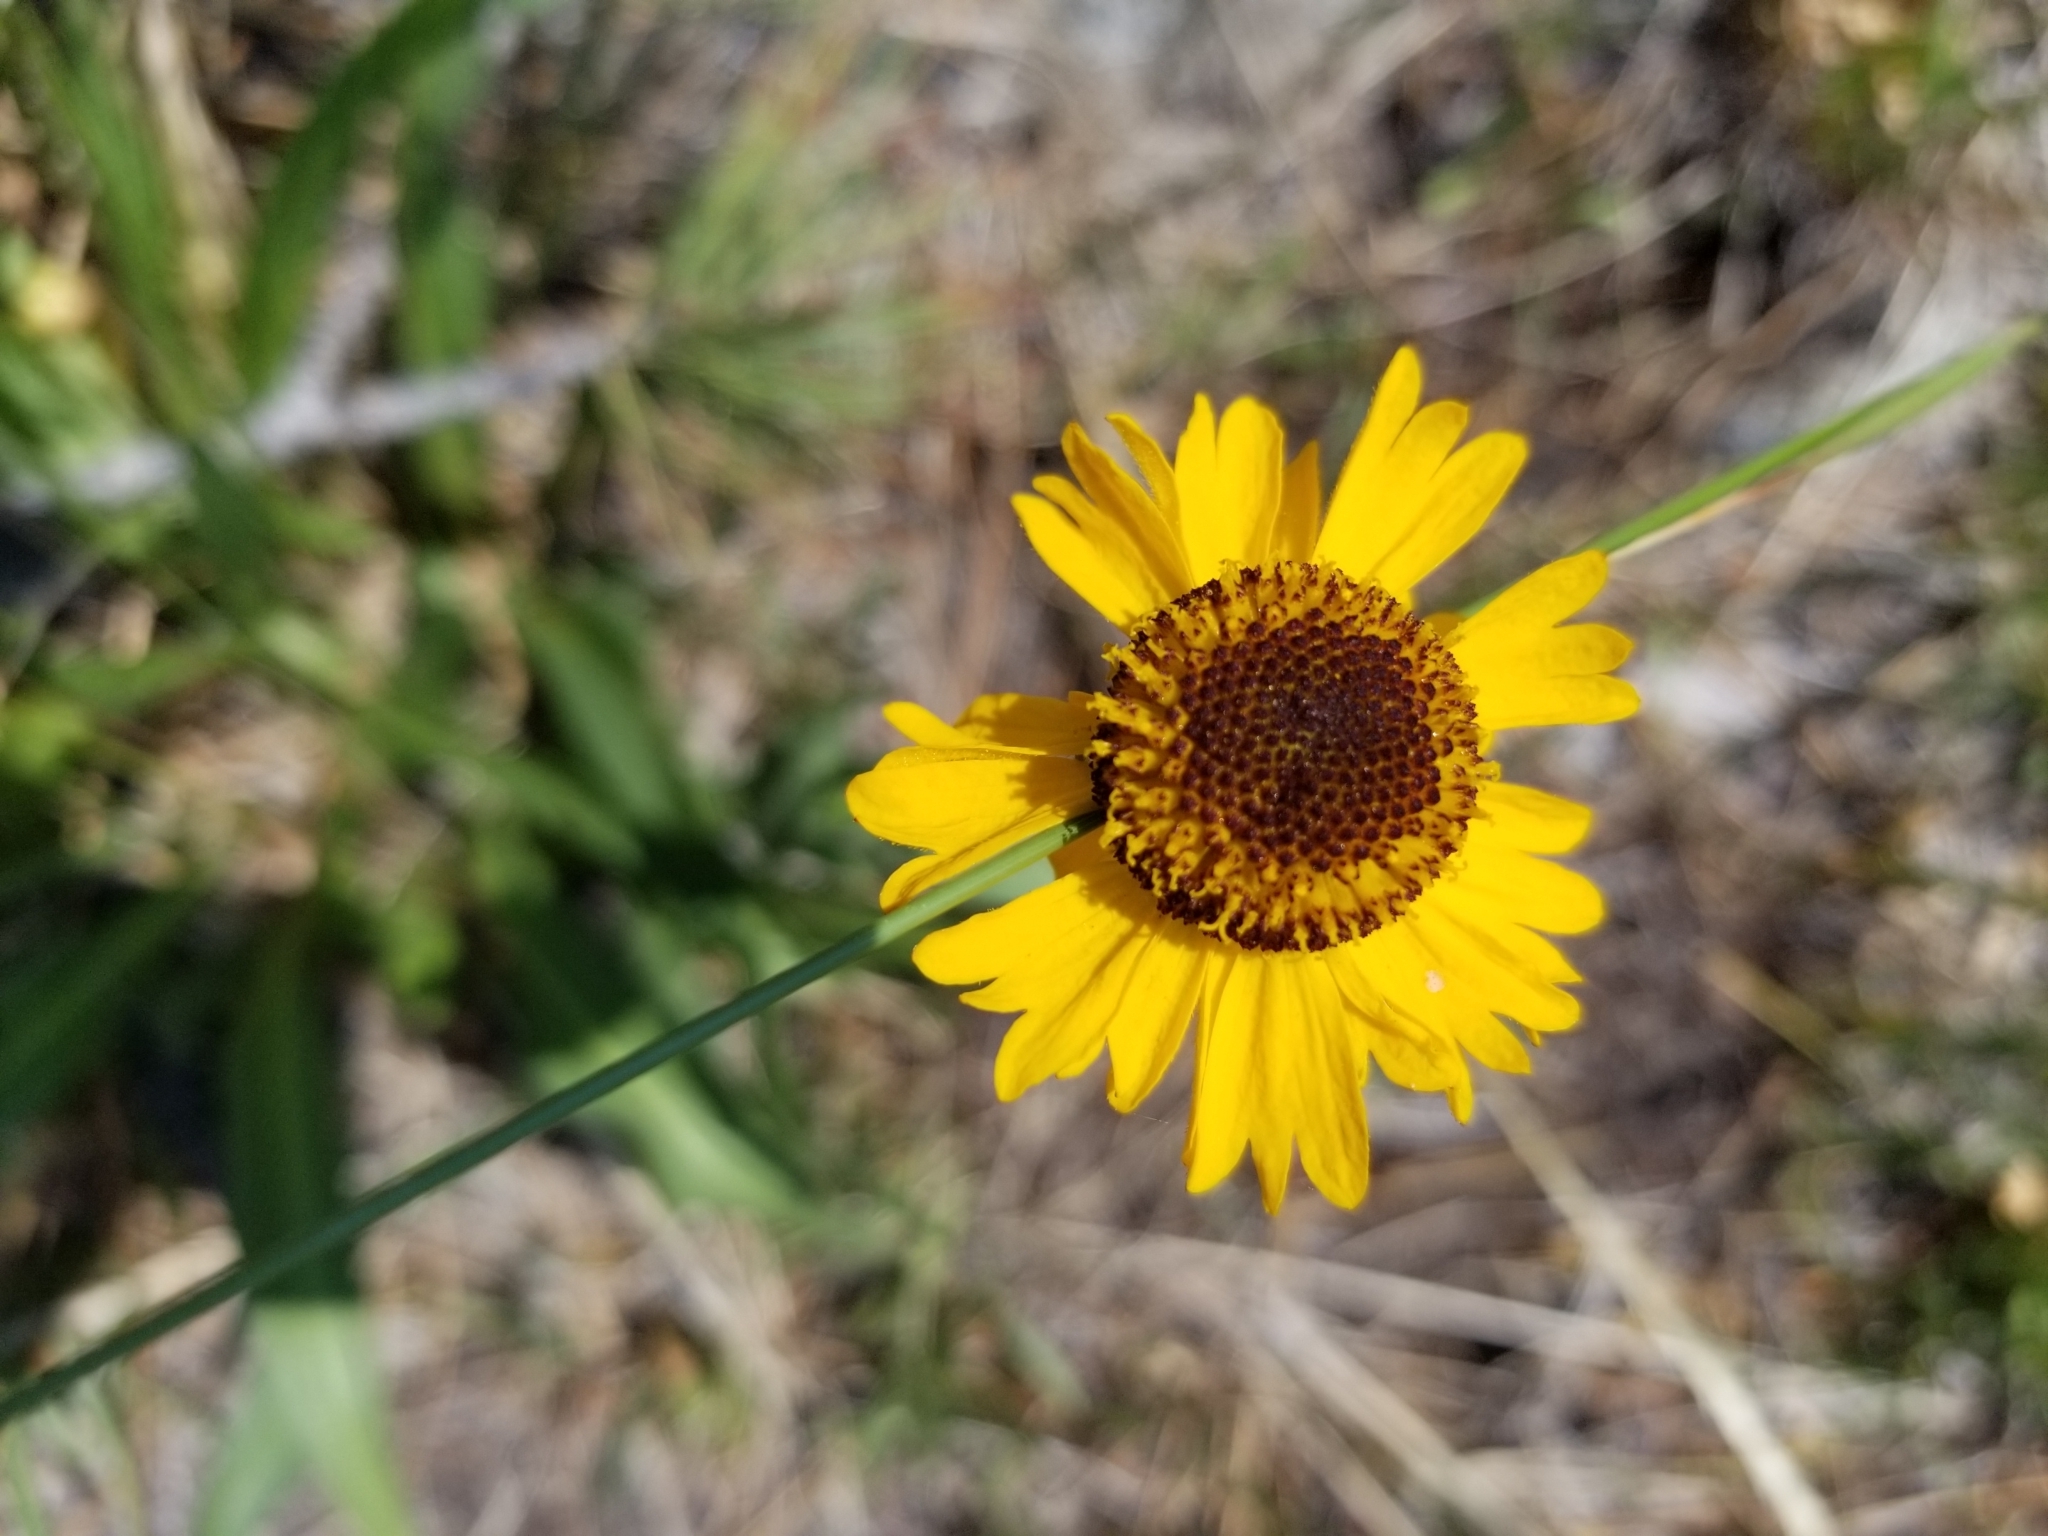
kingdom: Plantae
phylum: Tracheophyta
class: Magnoliopsida
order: Asterales
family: Asteraceae
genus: Helenium
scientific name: Helenium bigelovii
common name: Bigelow's sneezeweed
